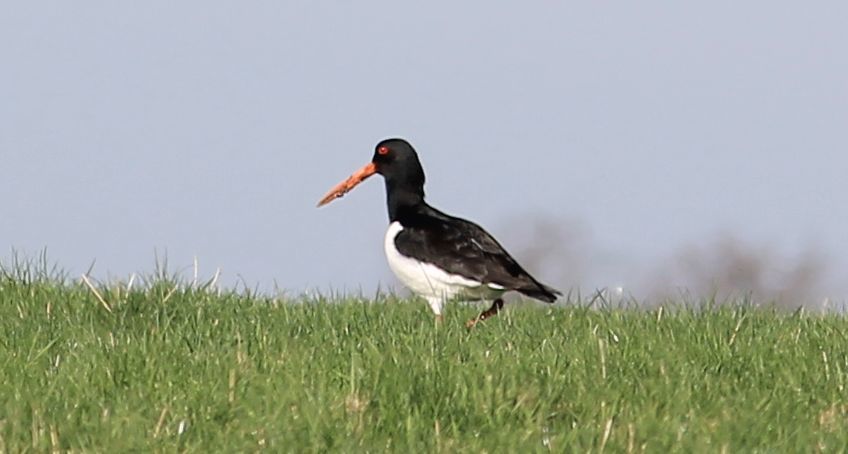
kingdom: Animalia
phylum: Chordata
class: Aves
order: Charadriiformes
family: Haematopodidae
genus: Haematopus
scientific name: Haematopus ostralegus
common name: Eurasian oystercatcher
